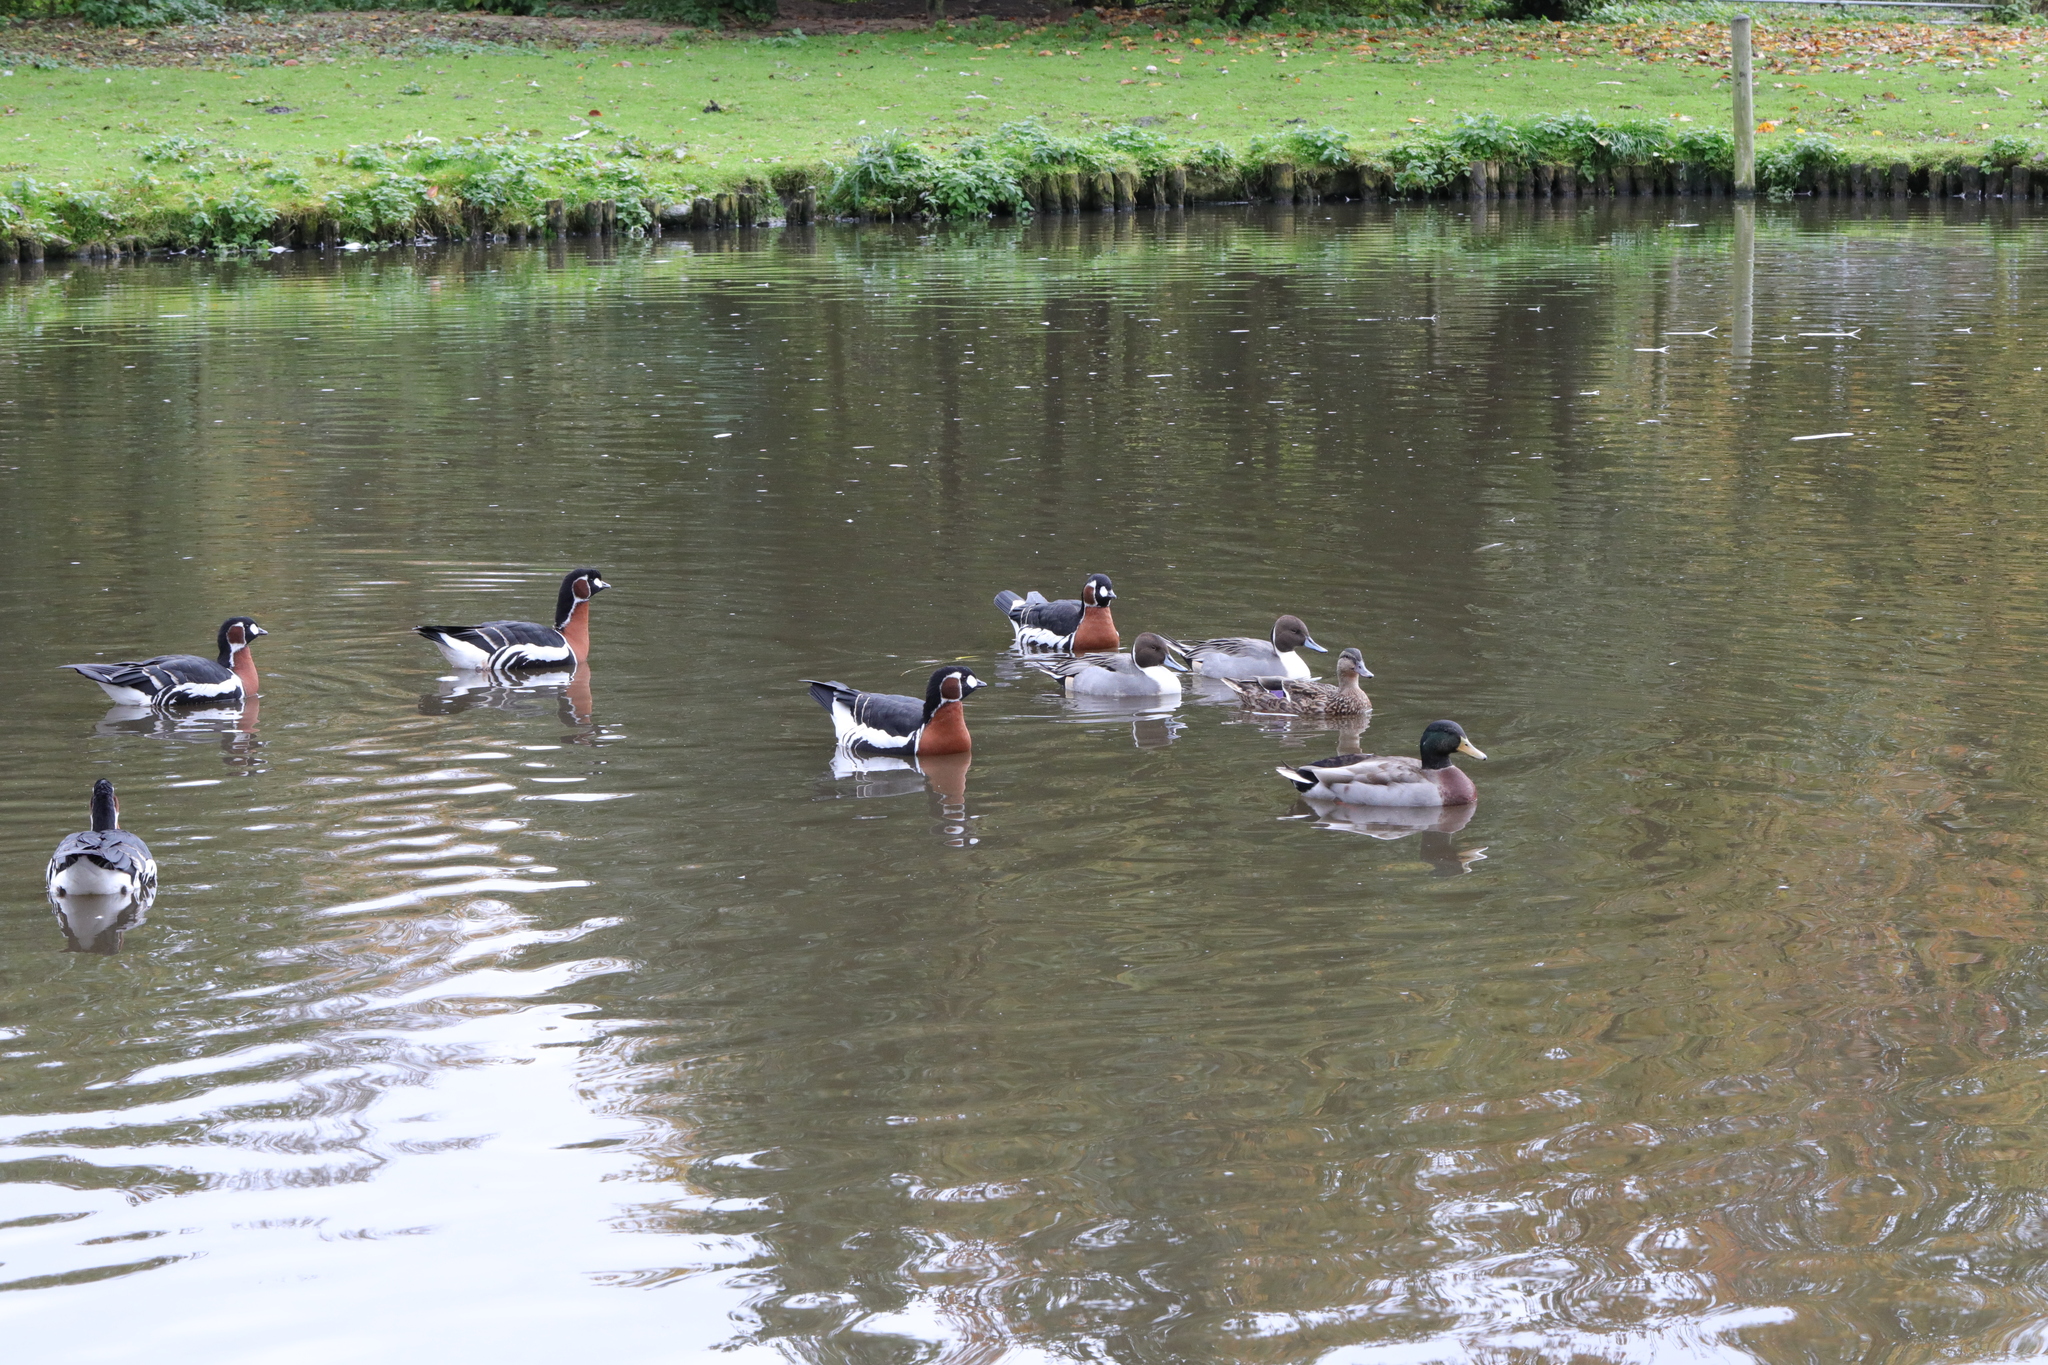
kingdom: Animalia
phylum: Chordata
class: Aves
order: Anseriformes
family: Anatidae
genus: Anas
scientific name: Anas acuta
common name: Northern pintail
